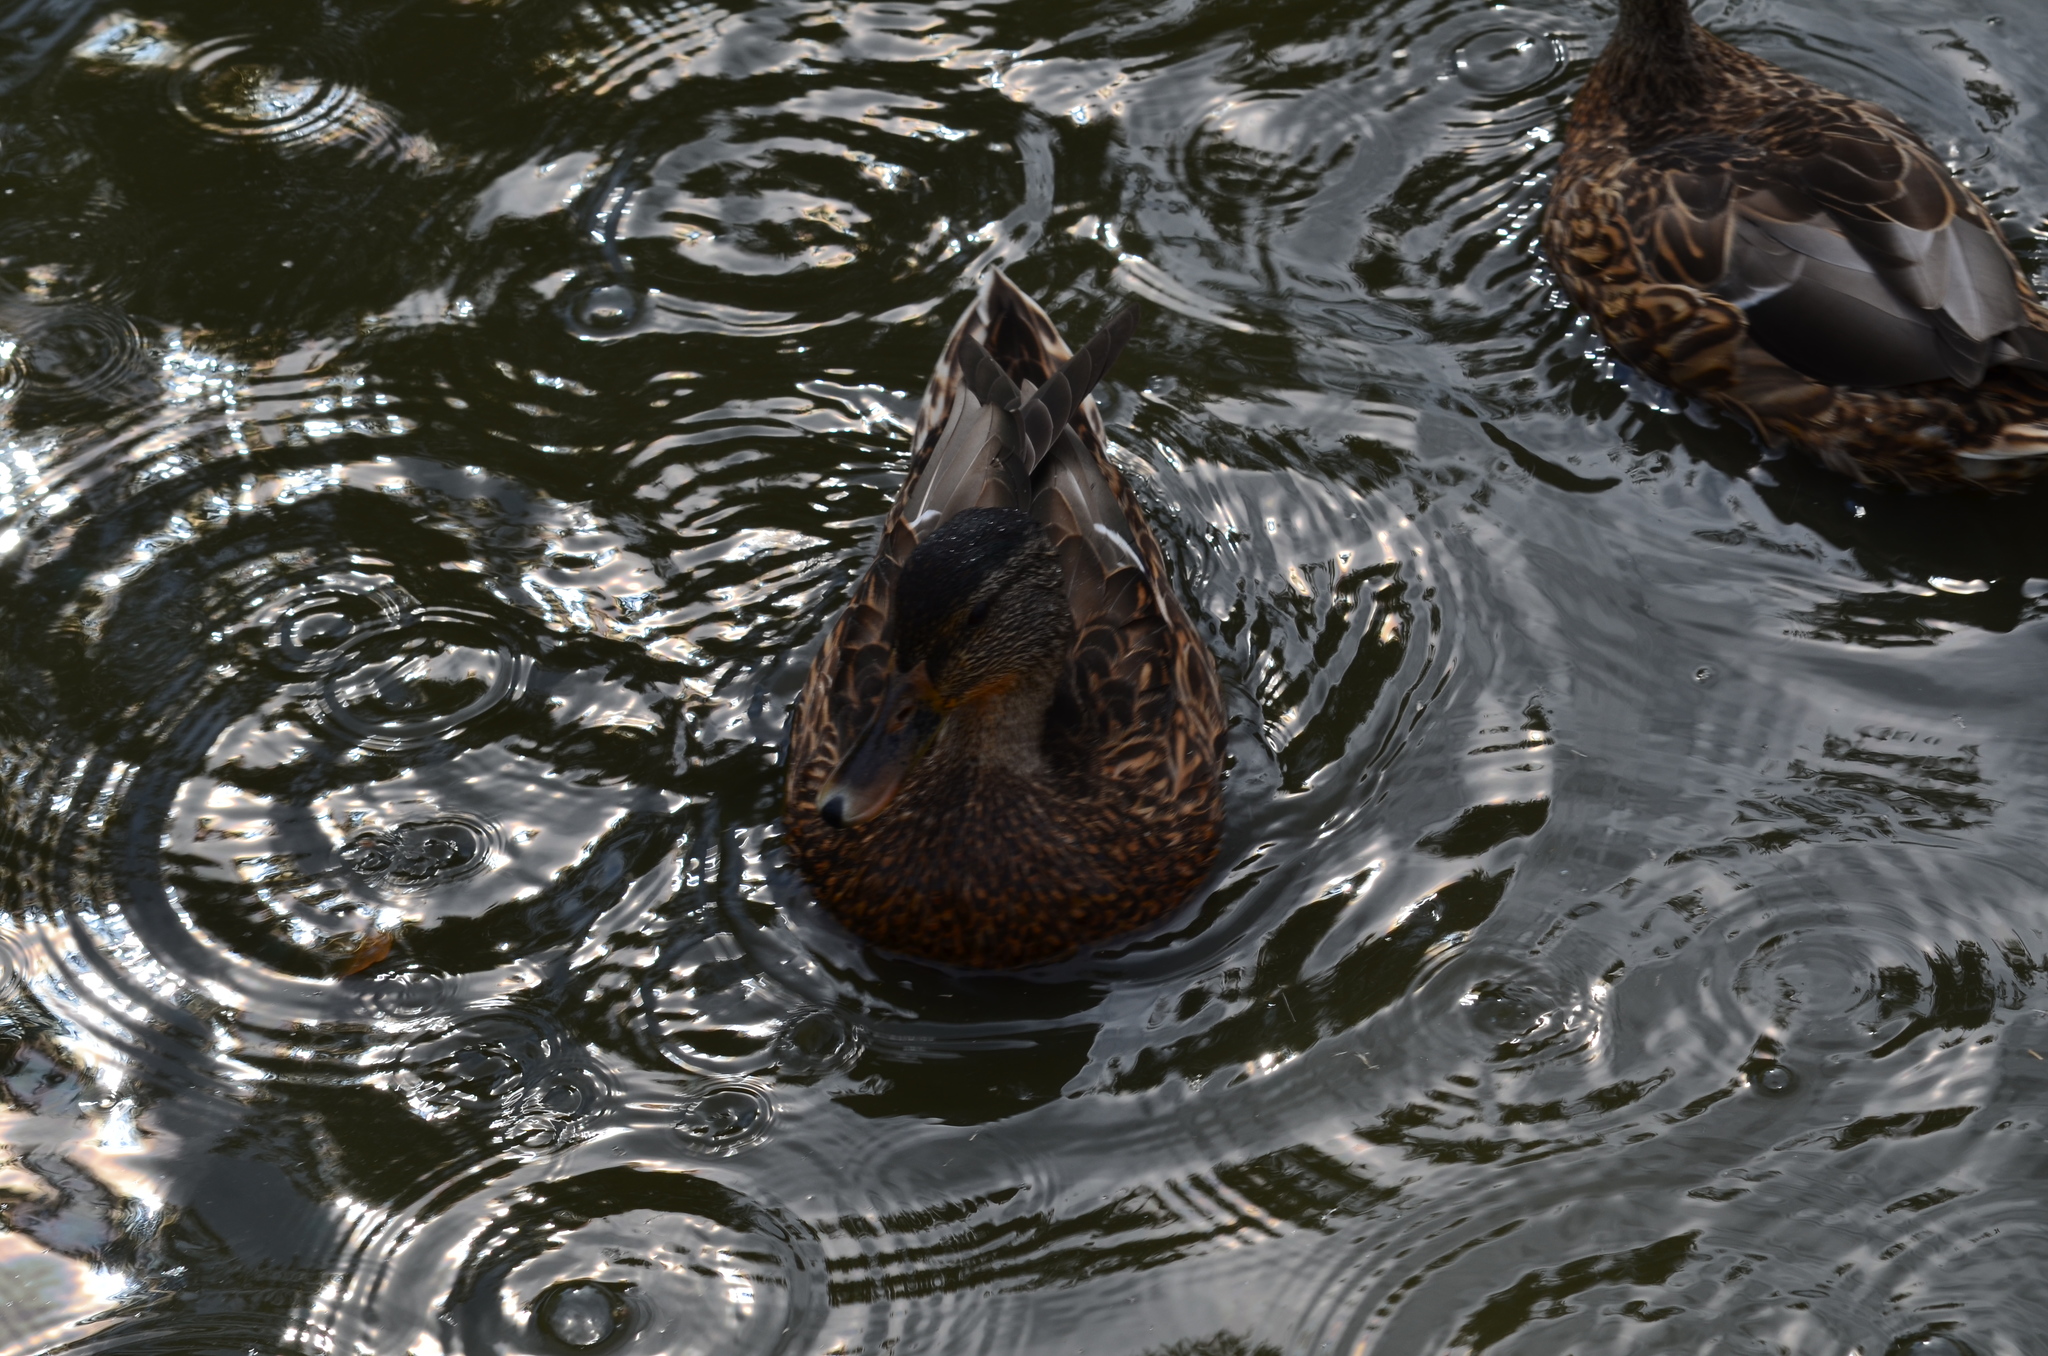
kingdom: Animalia
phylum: Chordata
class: Aves
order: Anseriformes
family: Anatidae
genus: Anas
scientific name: Anas platyrhynchos
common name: Mallard
